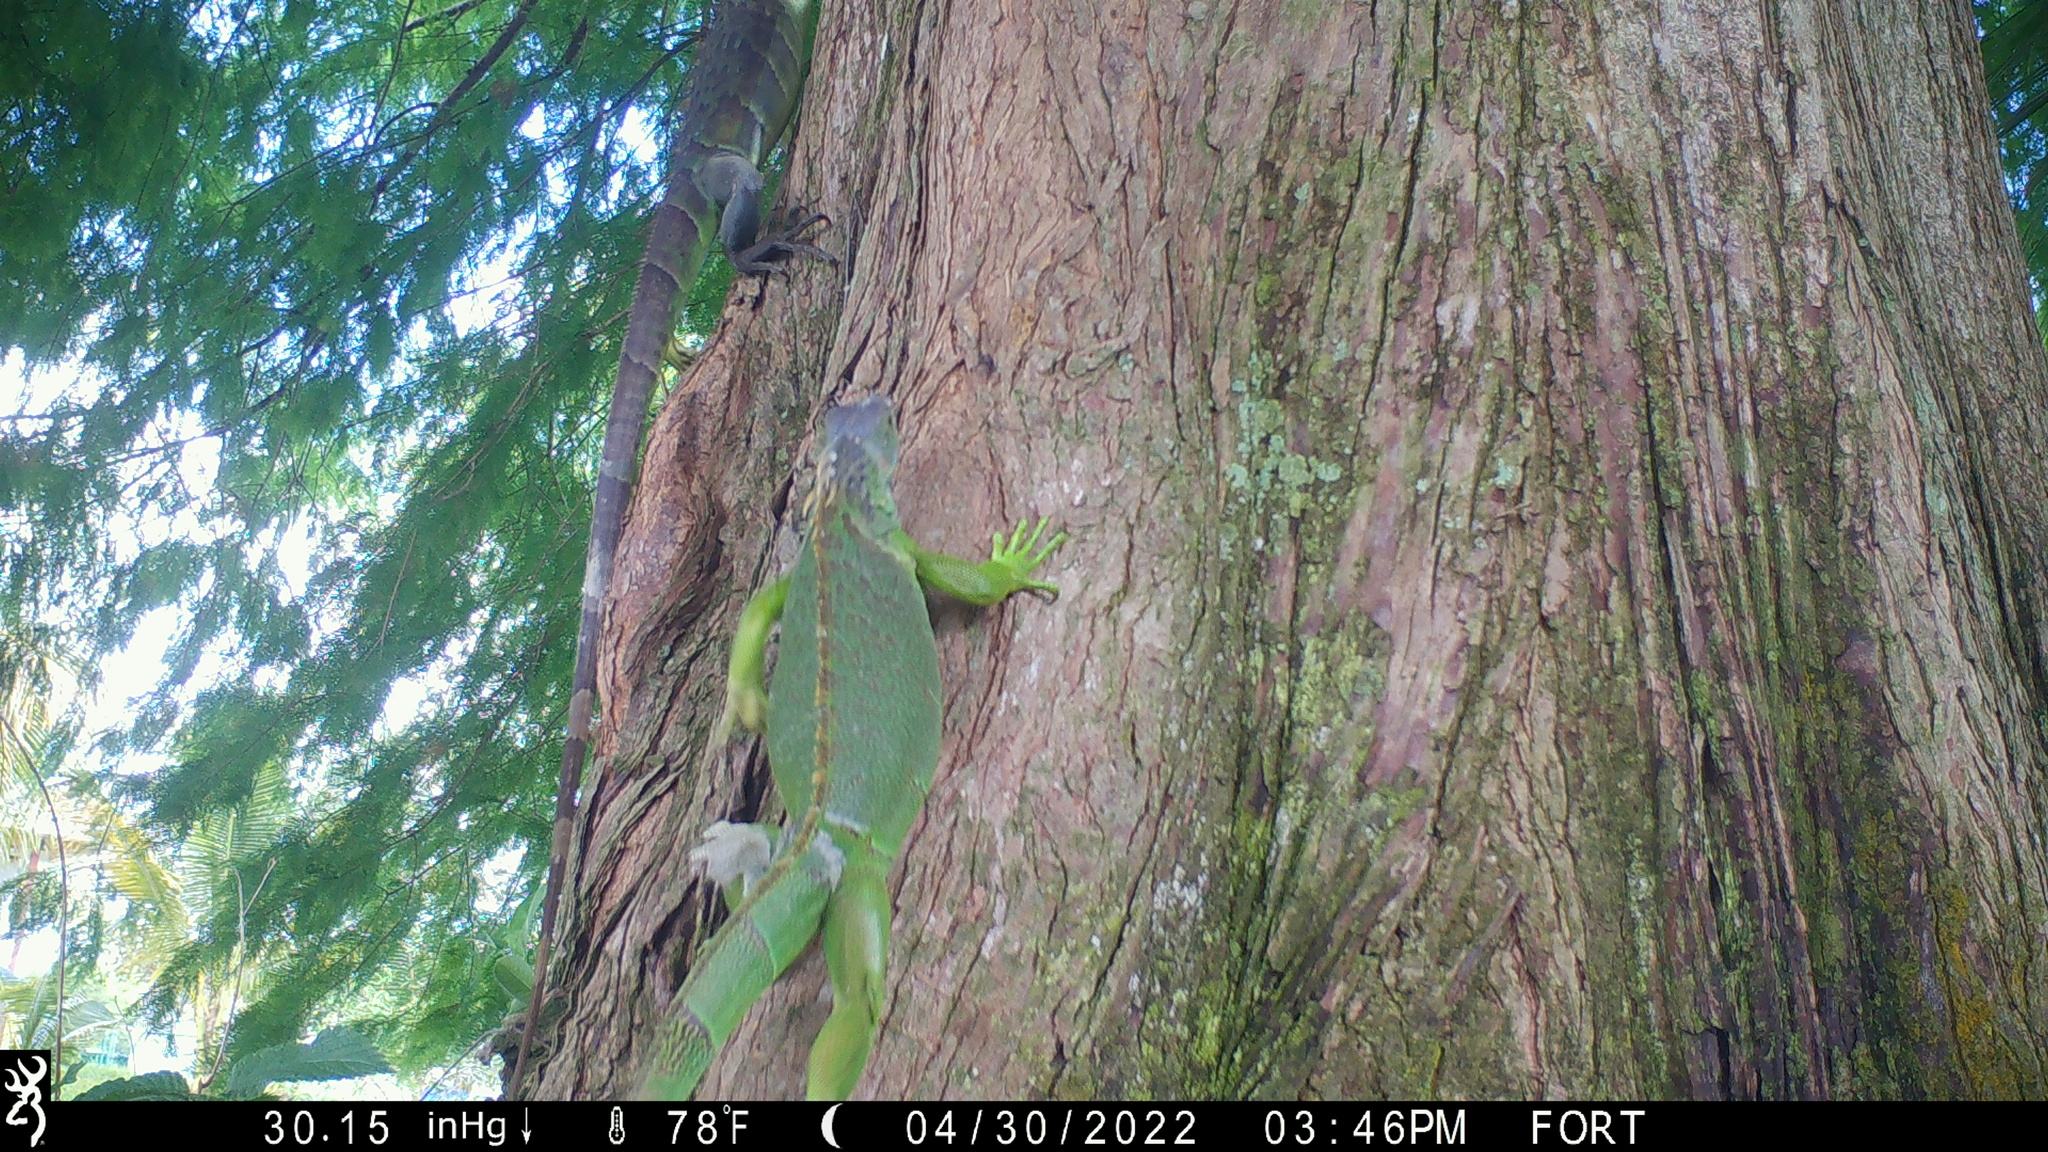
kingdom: Animalia
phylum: Chordata
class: Squamata
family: Iguanidae
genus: Iguana
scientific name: Iguana iguana
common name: Green iguana
